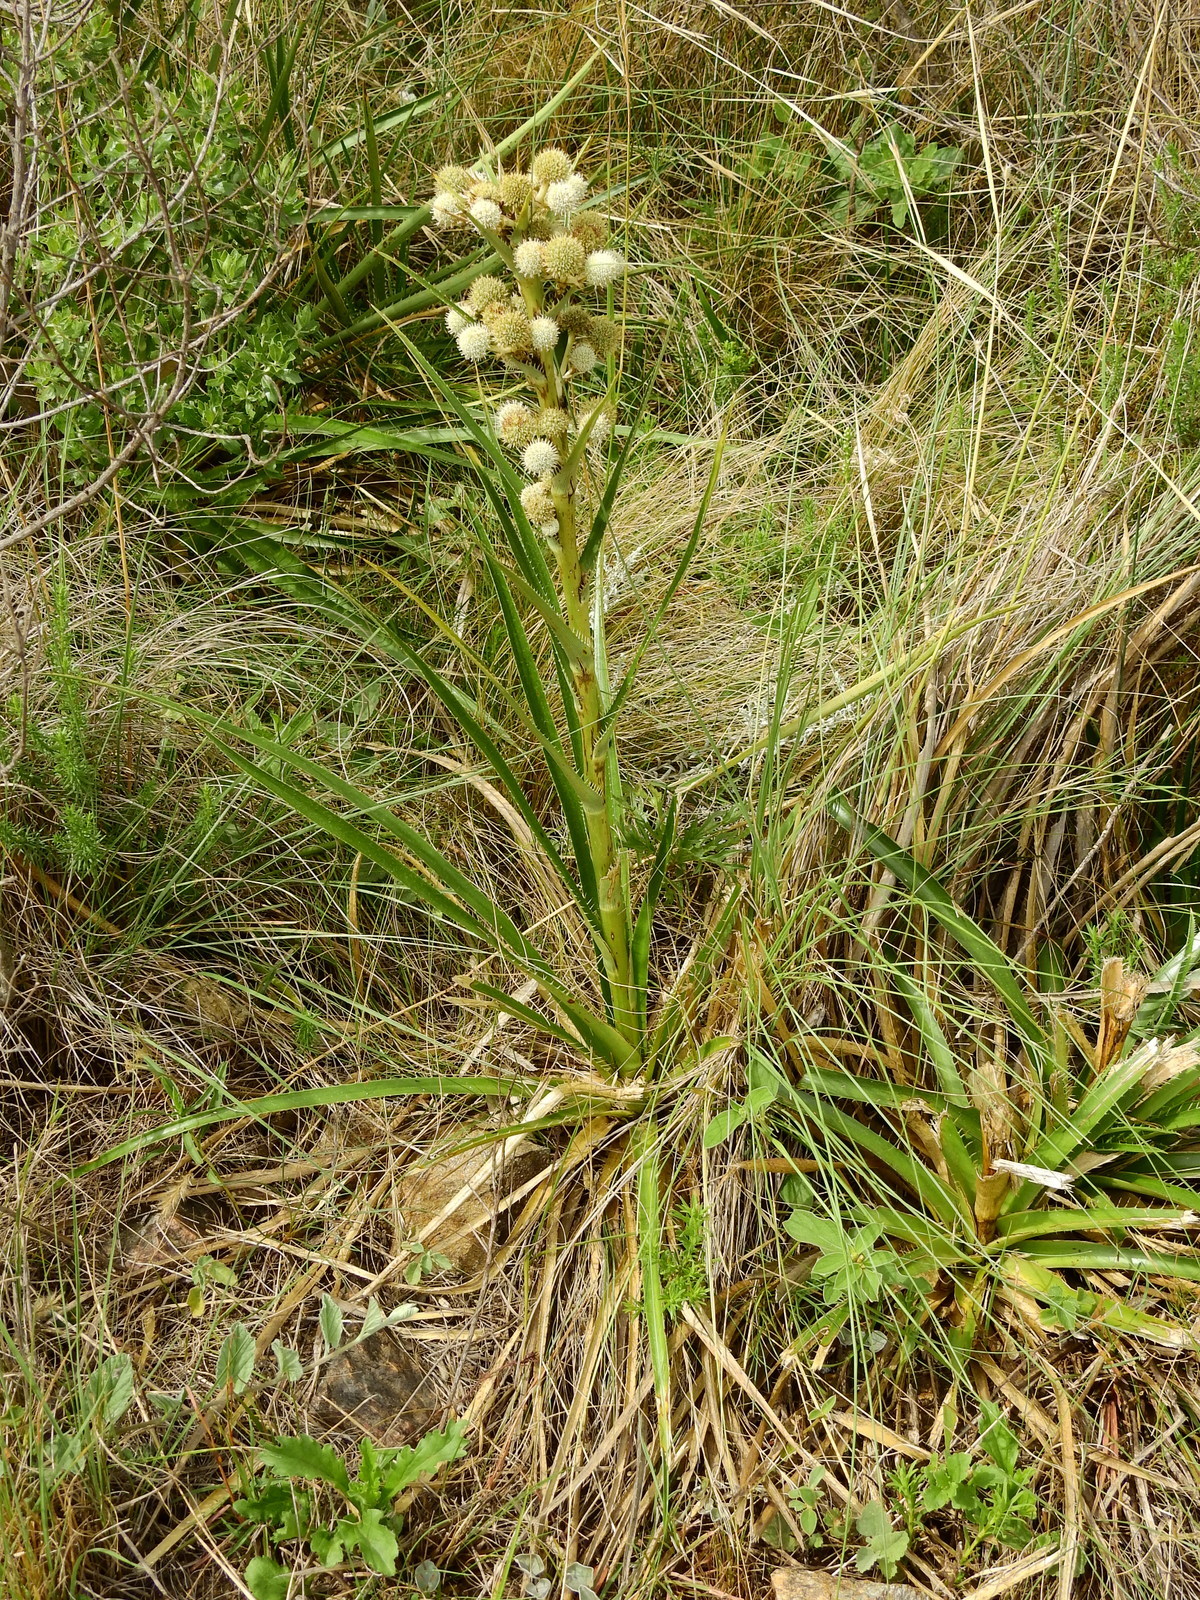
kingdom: Plantae
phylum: Tracheophyta
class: Magnoliopsida
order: Apiales
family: Apiaceae
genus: Eryngium
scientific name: Eryngium humboldtii
